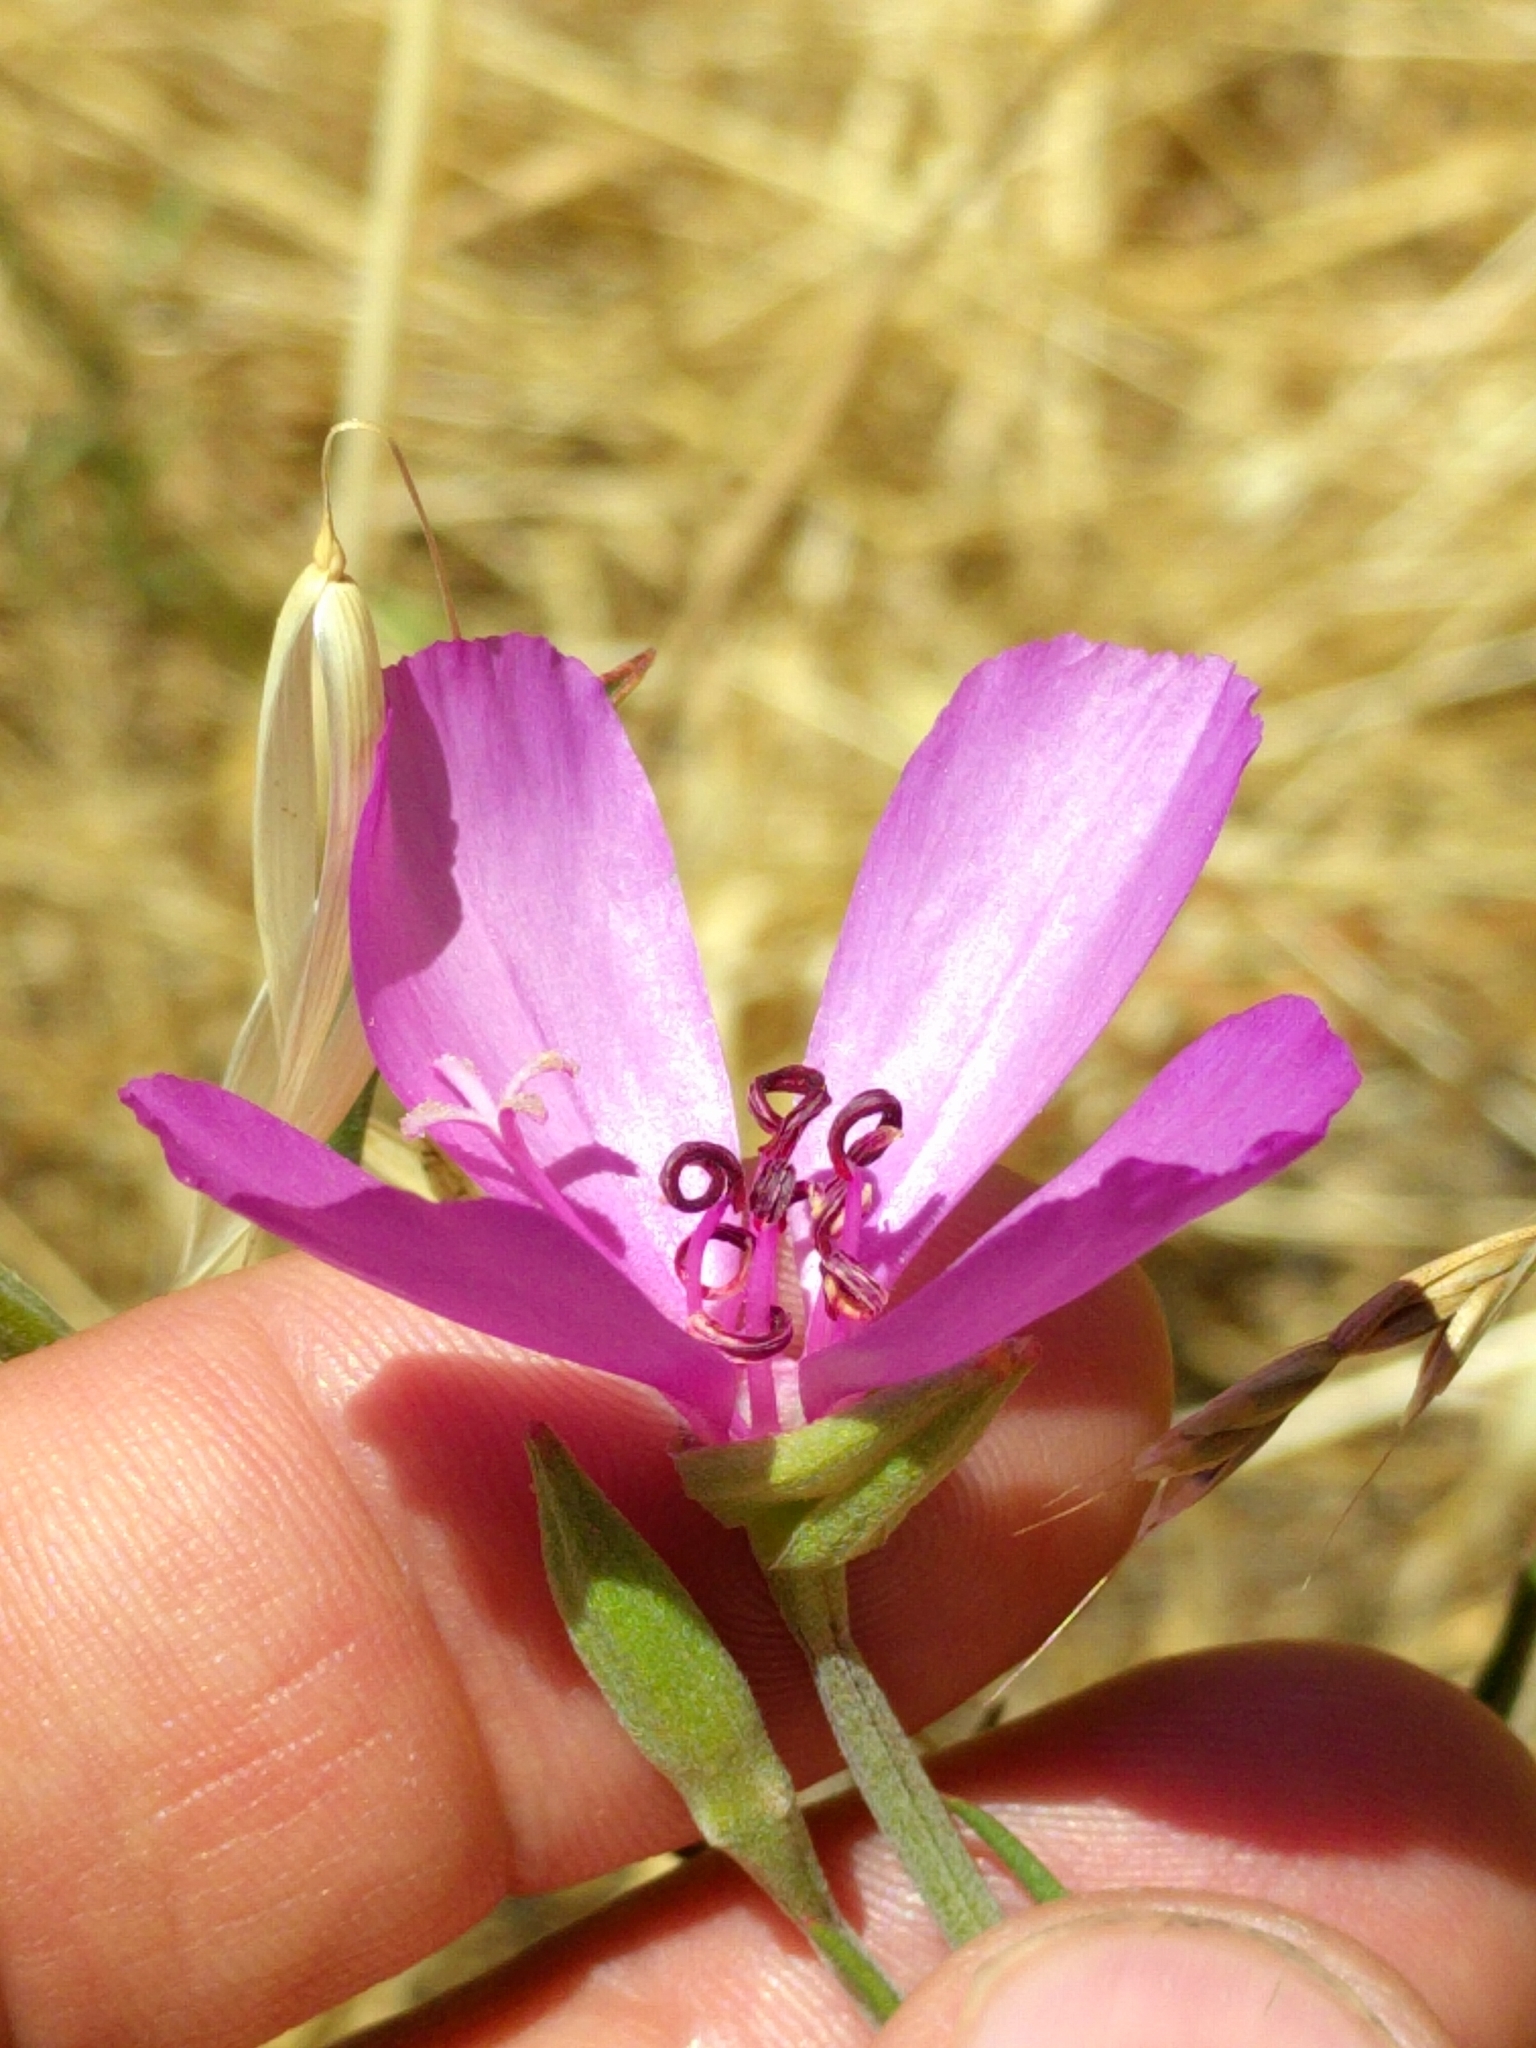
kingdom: Plantae
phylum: Tracheophyta
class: Magnoliopsida
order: Myrtales
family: Onagraceae
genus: Clarkia
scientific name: Clarkia rubicunda
